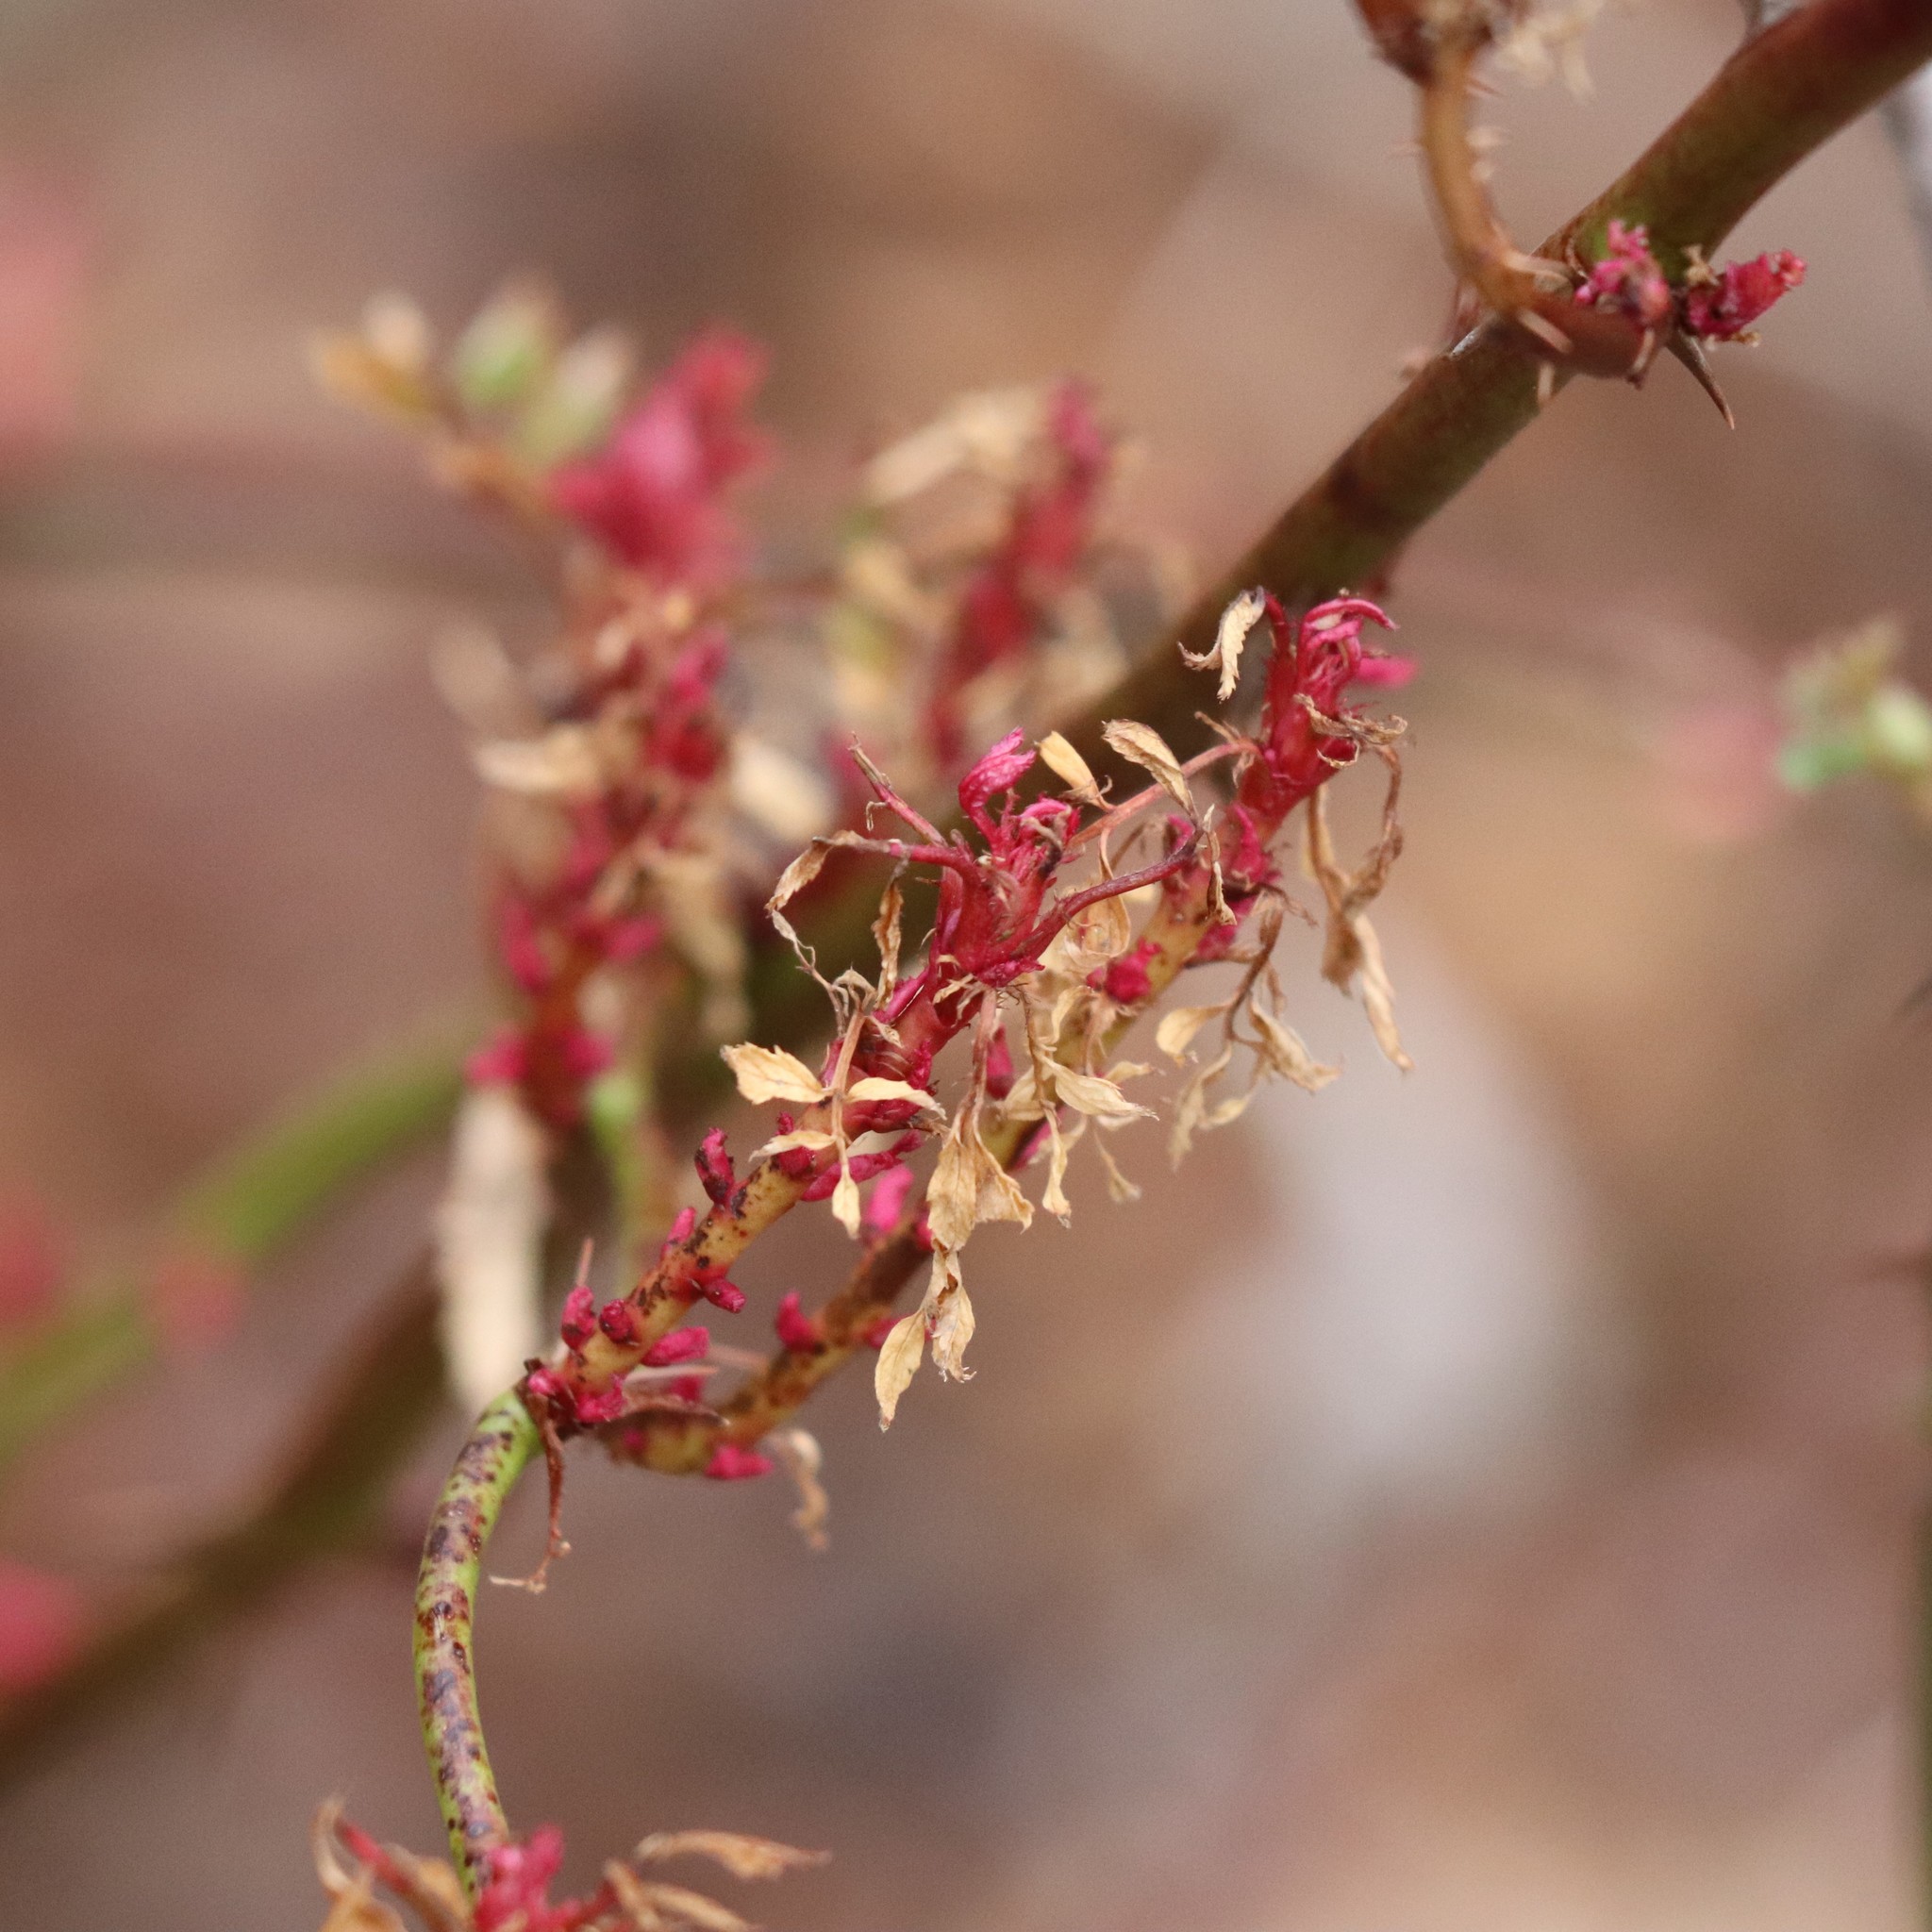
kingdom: Viruses
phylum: Negarnaviricota
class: Ellioviricetes
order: Bunyavirales
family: Fimoviridae
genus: Emaravirus
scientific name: Emaravirus rosae
